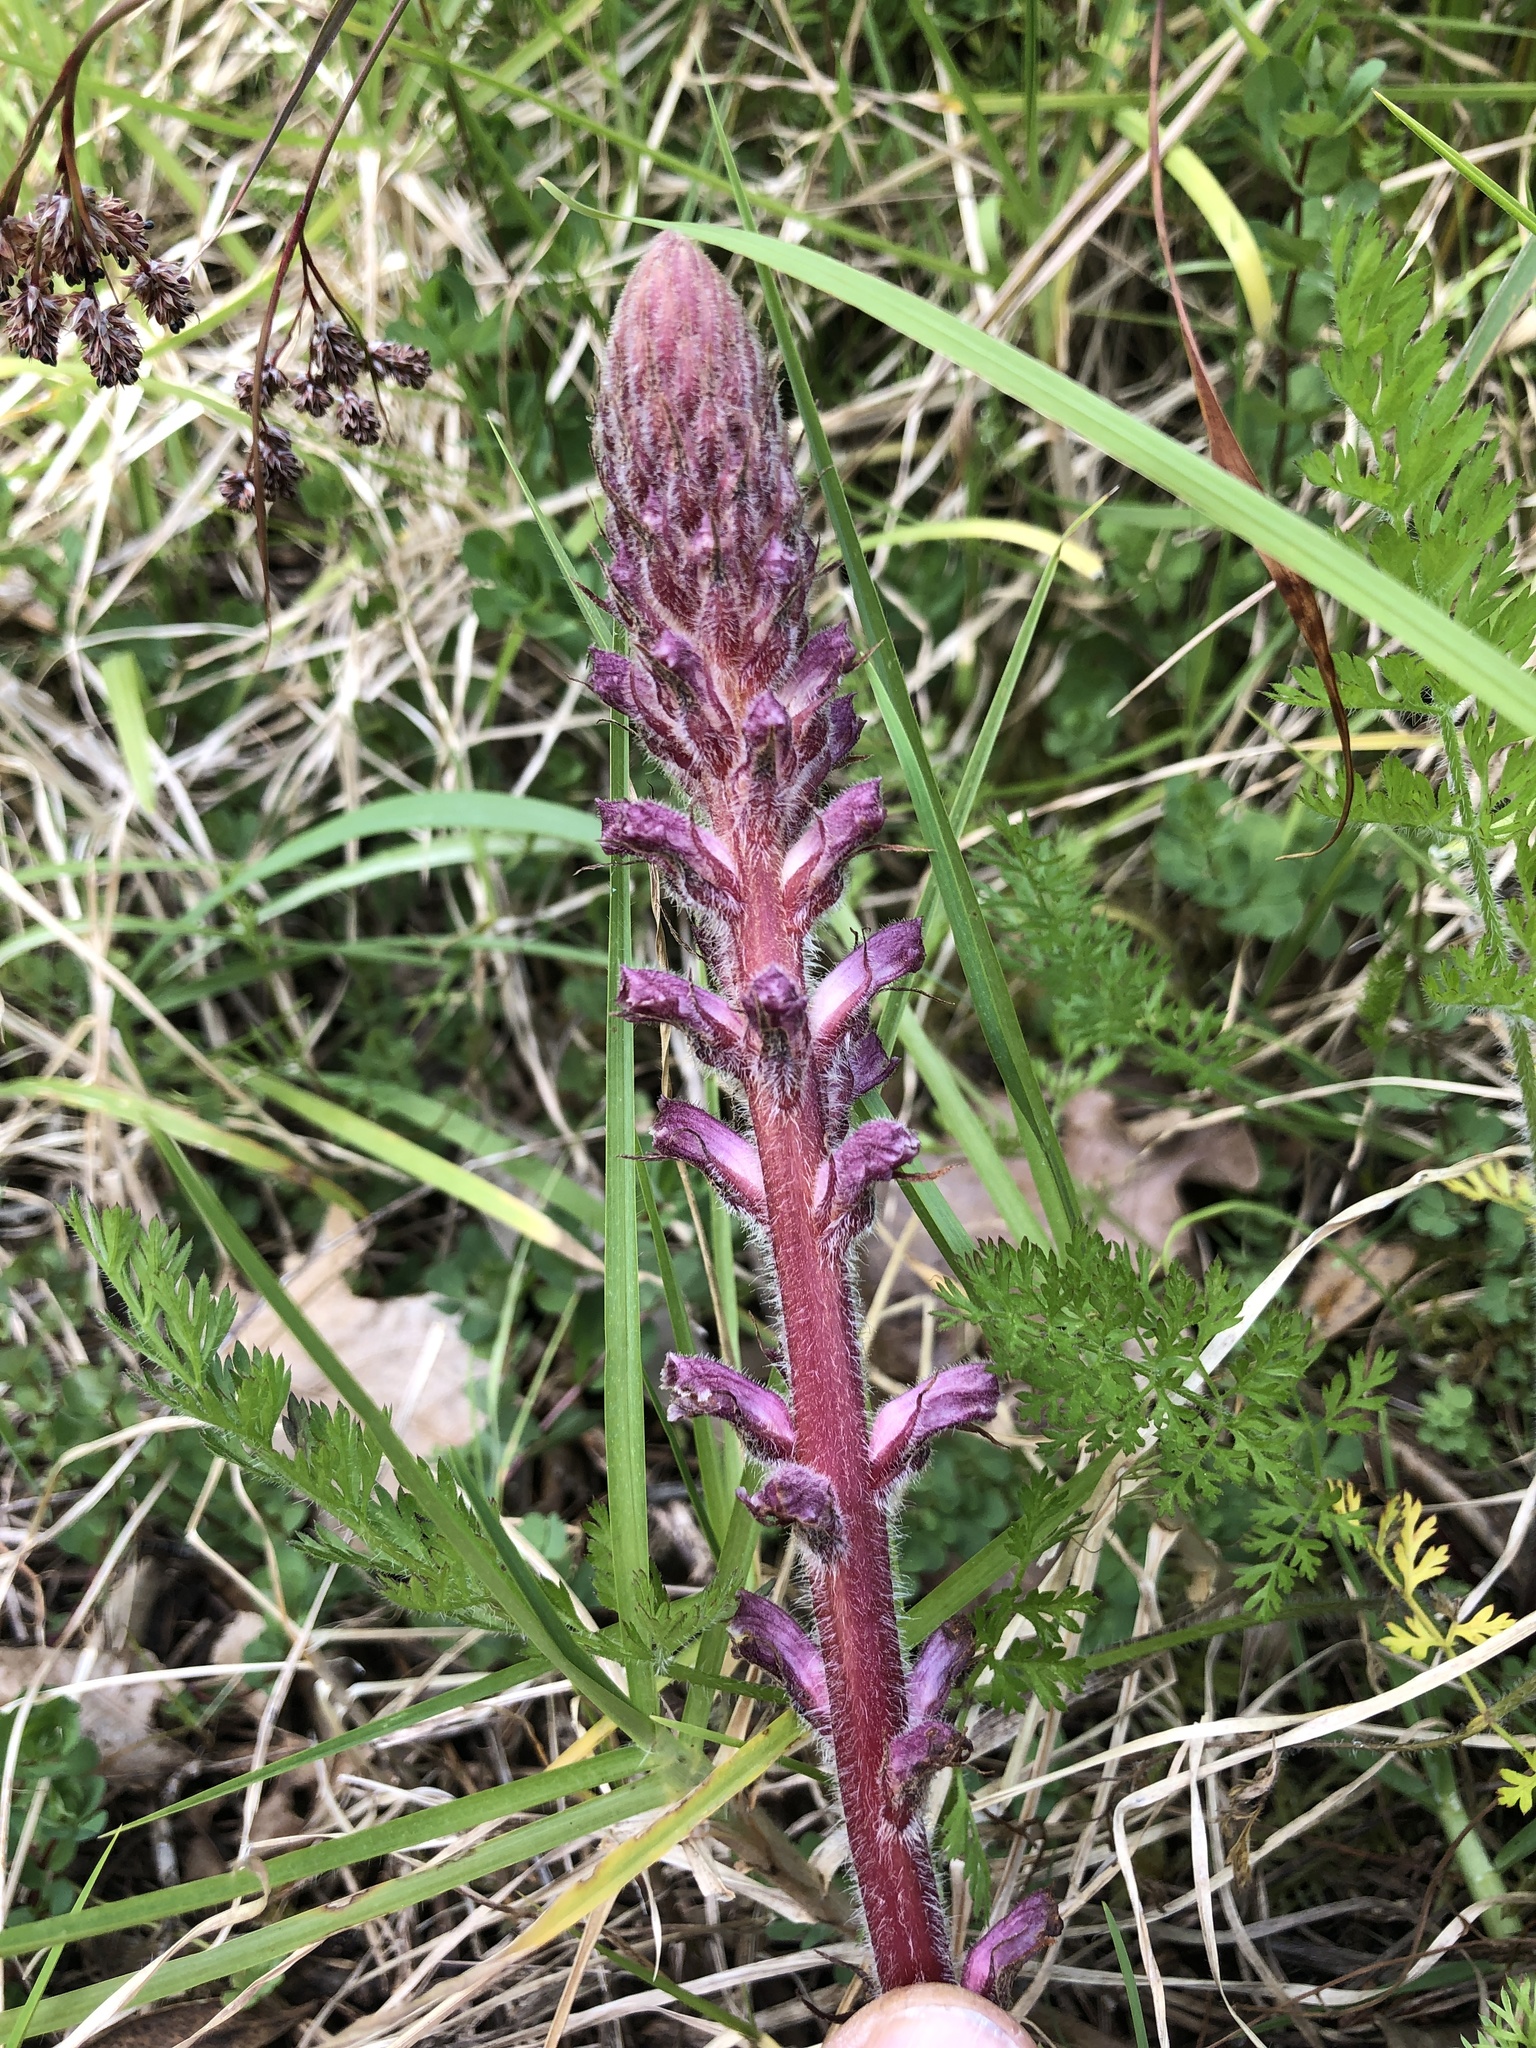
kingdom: Plantae
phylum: Tracheophyta
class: Magnoliopsida
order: Lamiales
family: Orobanchaceae
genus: Orobanche
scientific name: Orobanche minor
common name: Common broomrape
